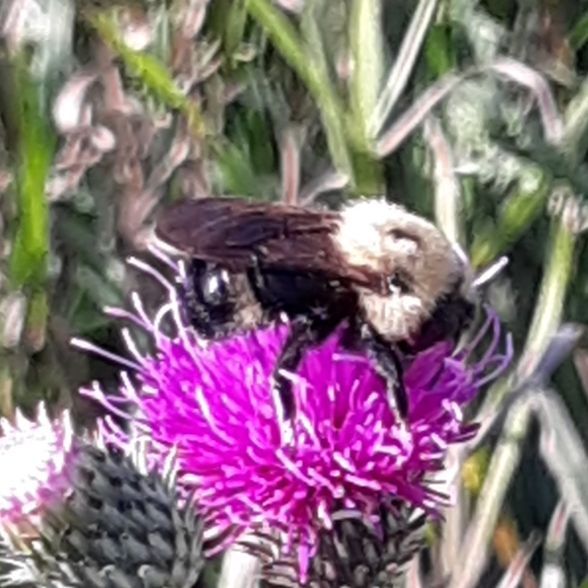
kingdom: Animalia
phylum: Arthropoda
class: Insecta
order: Hymenoptera
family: Apidae
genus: Bombus
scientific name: Bombus citrinus
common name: Lemon cuckoo bumble bee
